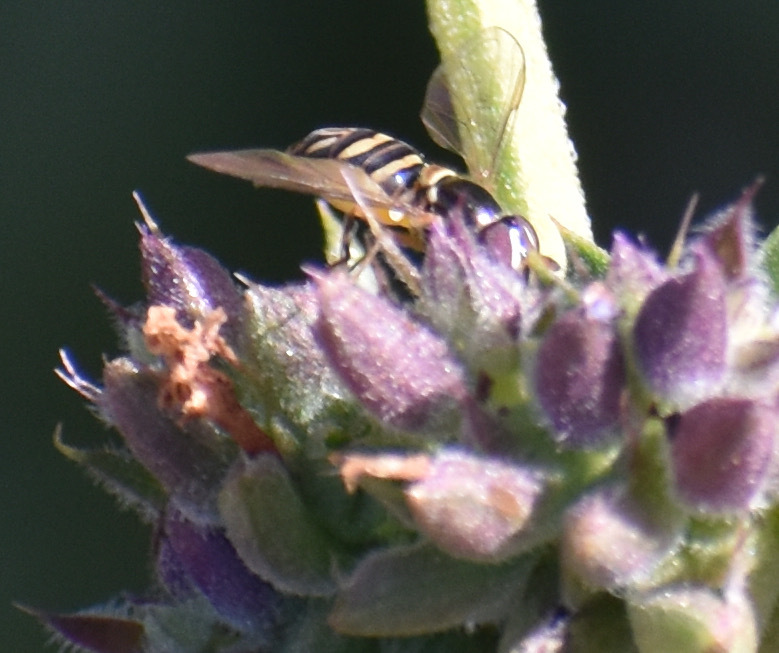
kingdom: Animalia
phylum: Arthropoda
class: Insecta
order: Diptera
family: Syrphidae
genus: Allograpta
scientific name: Allograpta obliqua
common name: Common oblique syrphid
